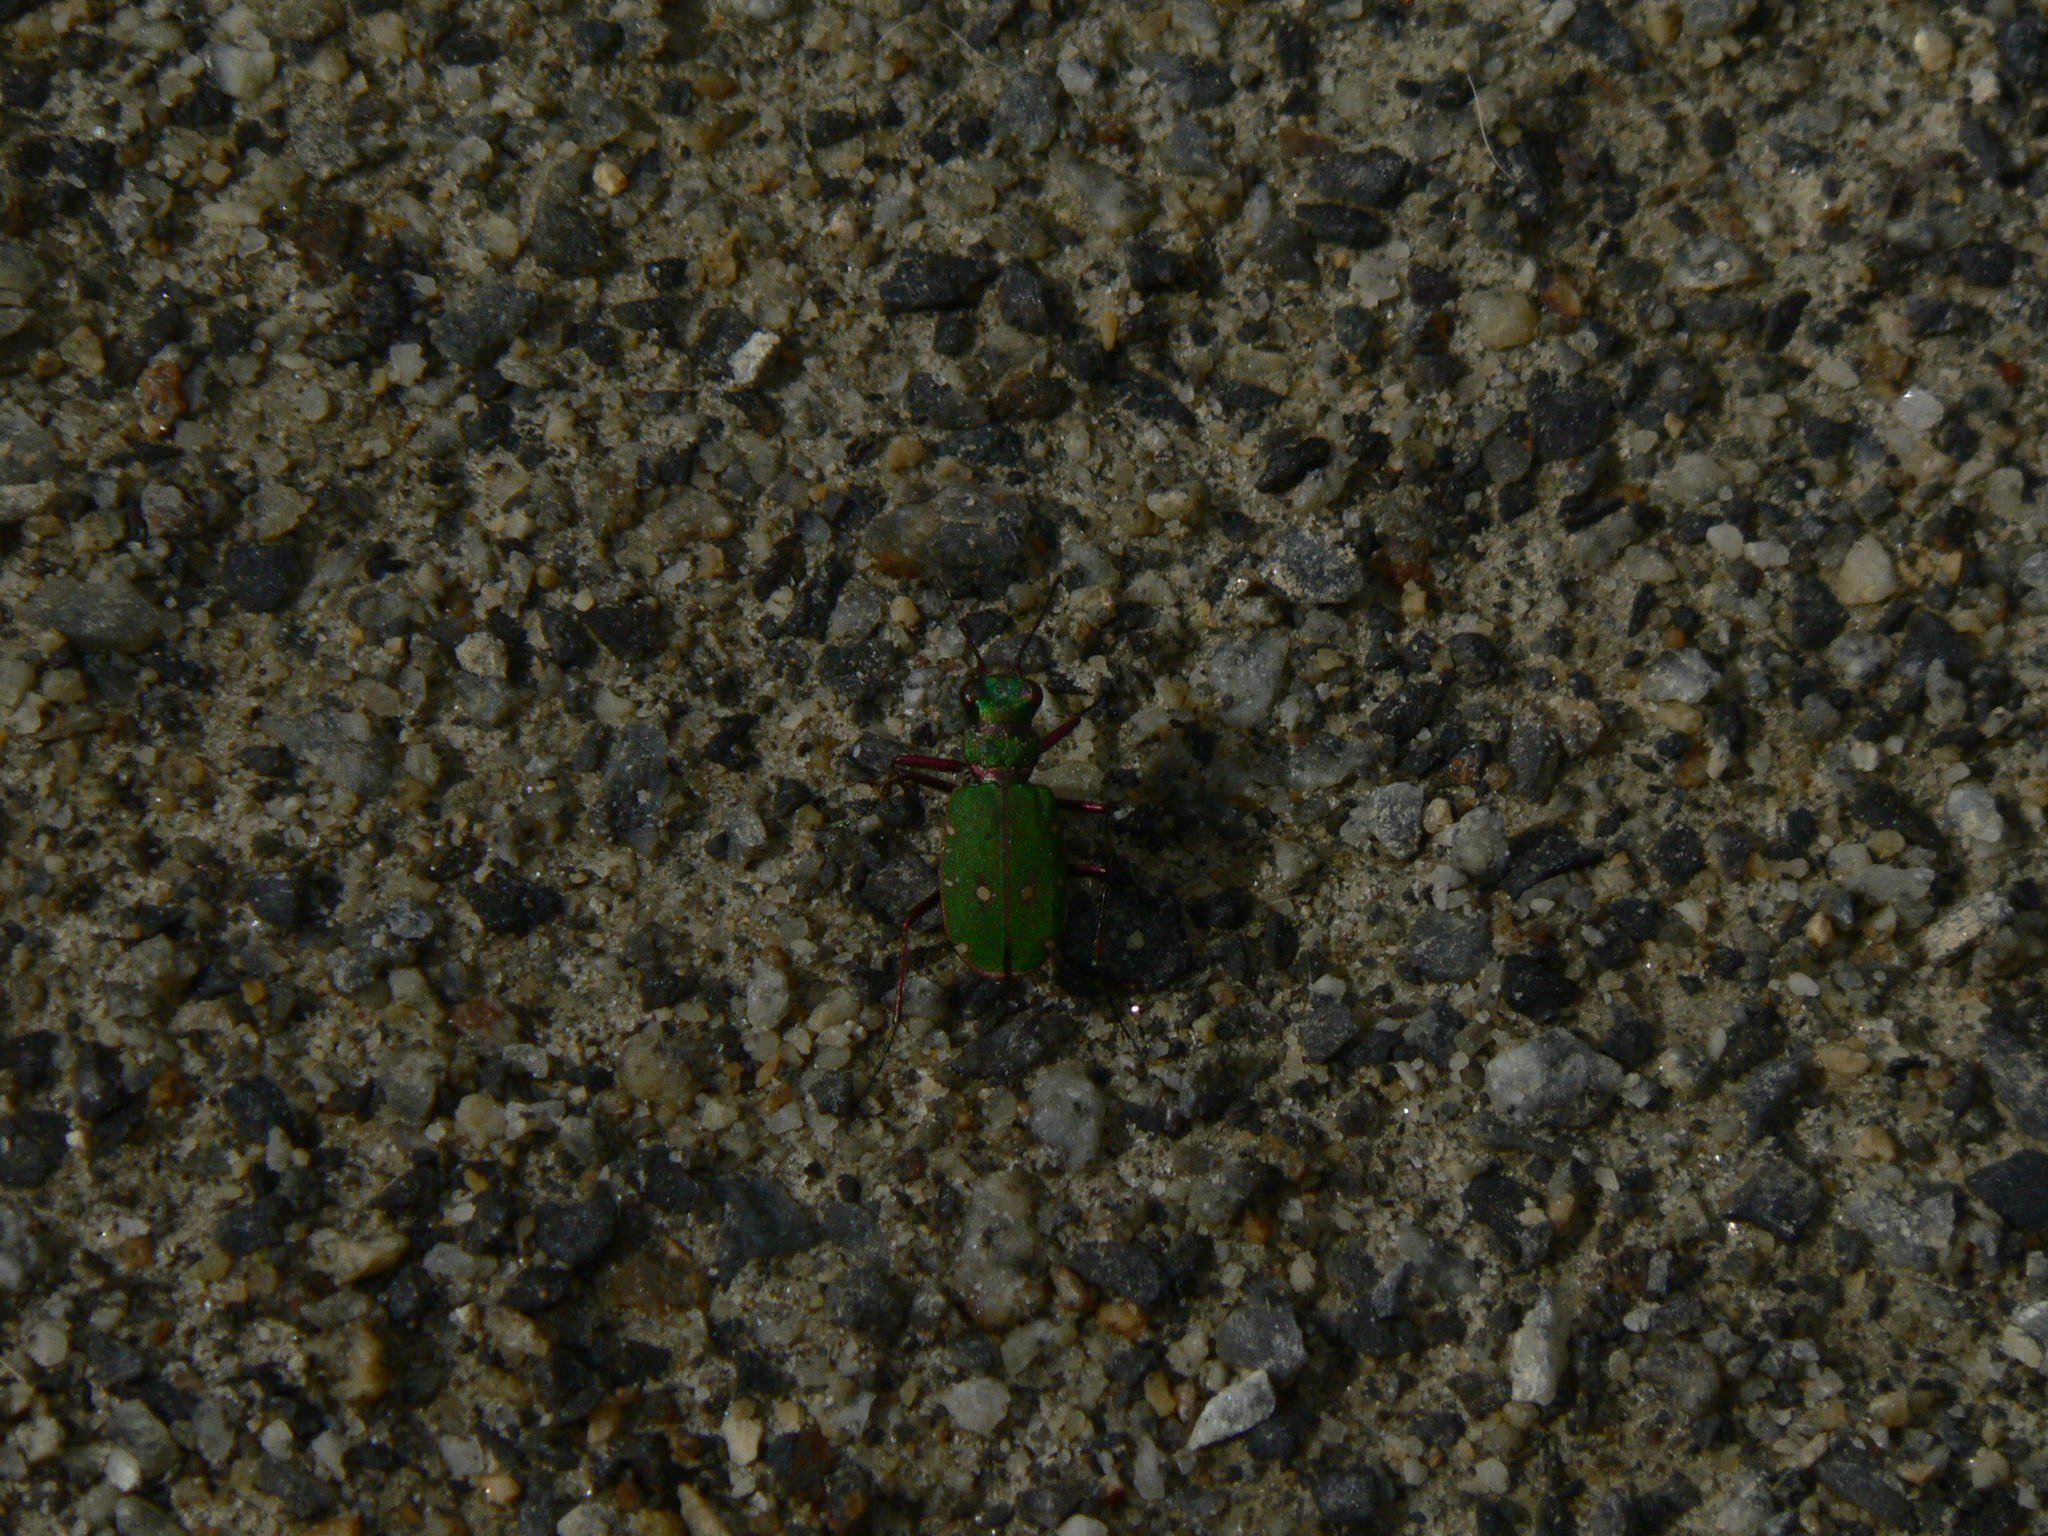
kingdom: Animalia
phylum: Arthropoda
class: Insecta
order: Coleoptera
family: Carabidae
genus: Cicindela
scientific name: Cicindela campestris
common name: Common tiger beetle
